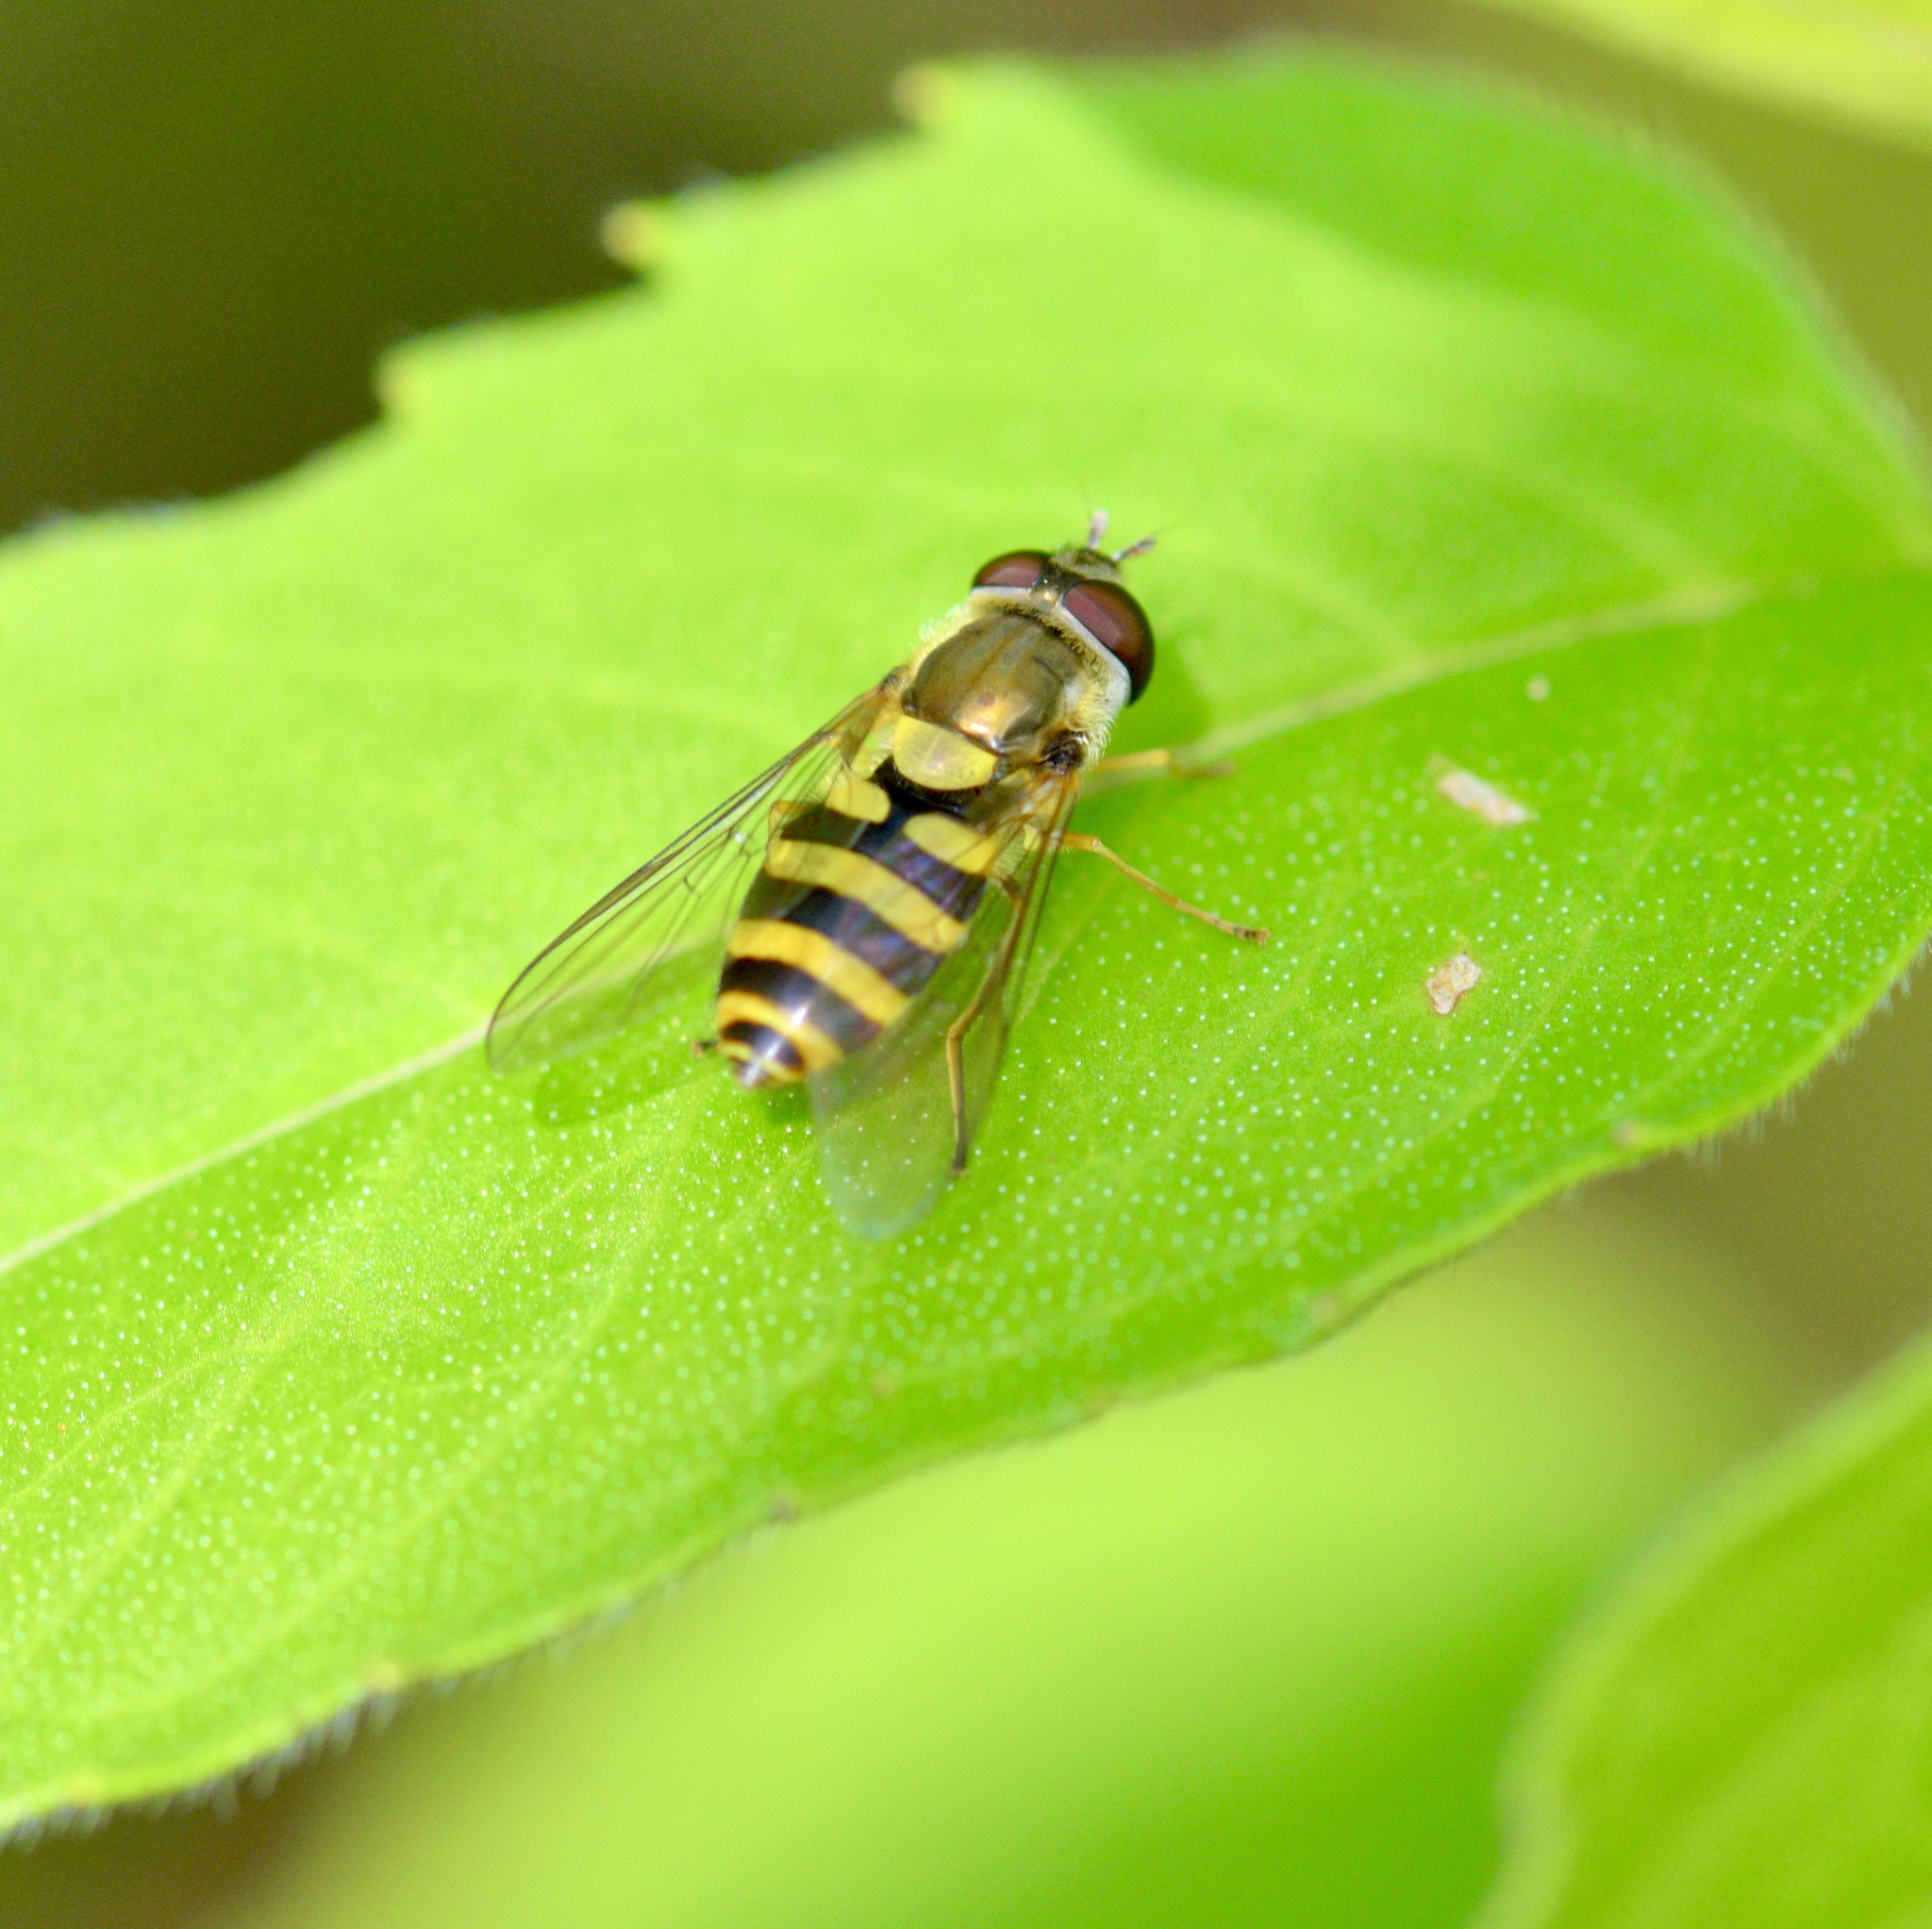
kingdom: Animalia
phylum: Arthropoda
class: Insecta
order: Diptera
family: Syrphidae
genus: Syrphus
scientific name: Syrphus rectus
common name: Yellow-legged flower fly
